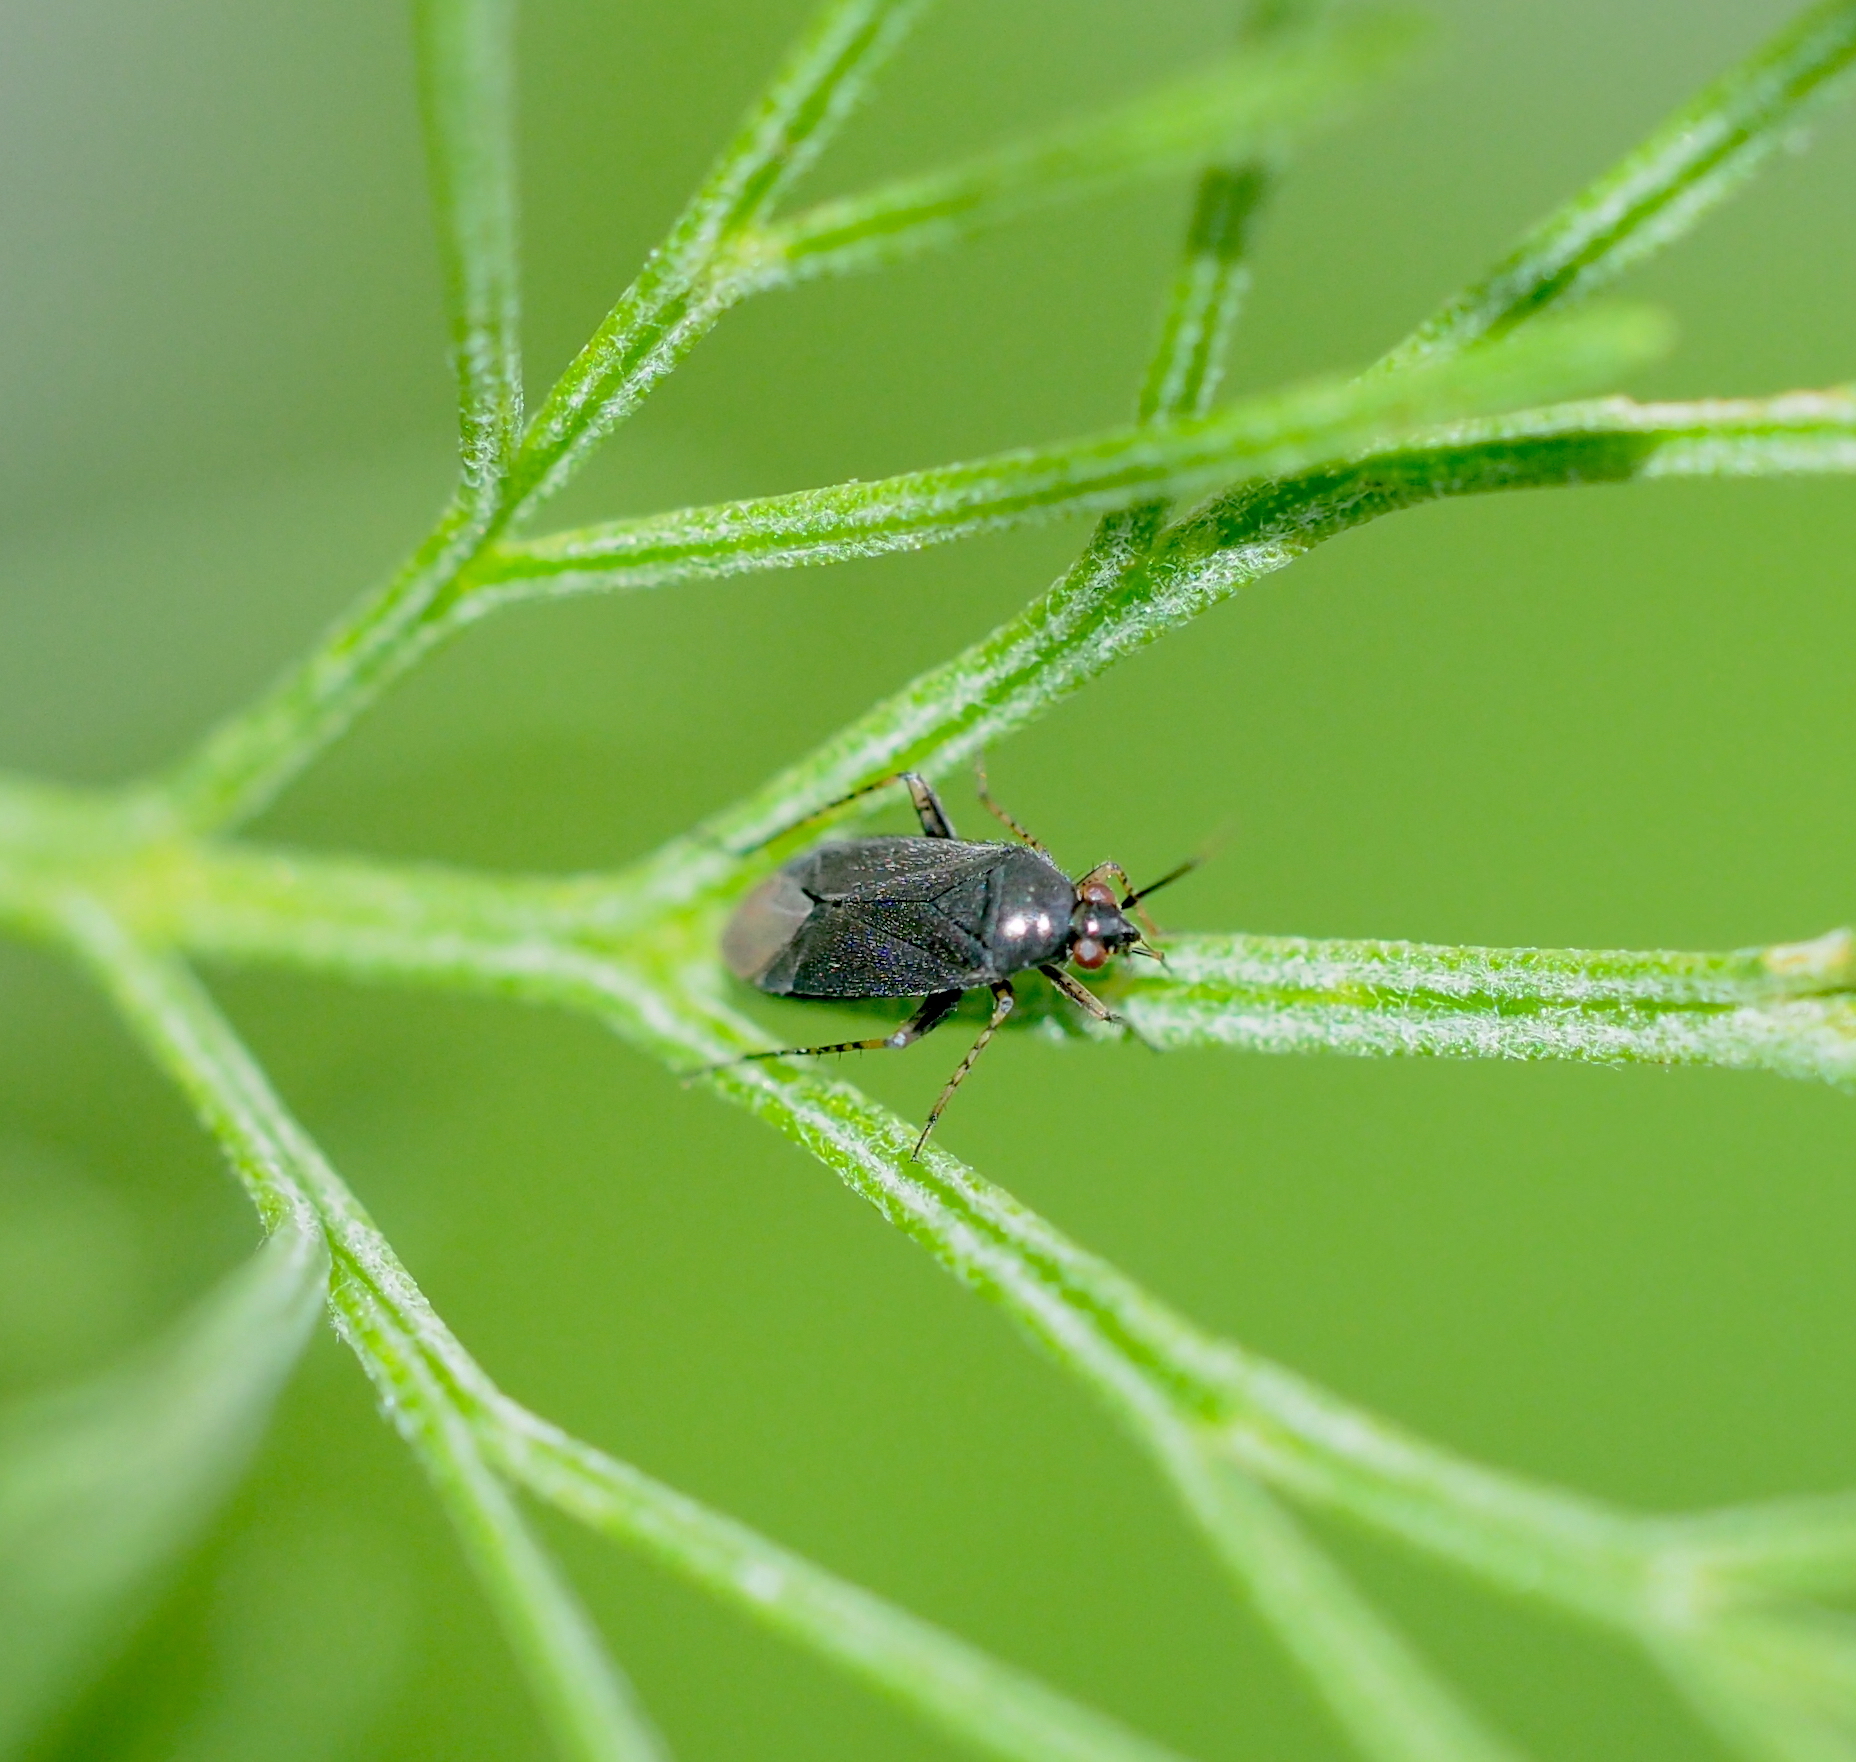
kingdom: Animalia
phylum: Arthropoda
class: Insecta
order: Hemiptera
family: Miridae
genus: Plagiognathus
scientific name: Plagiognathus arbustorum
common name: Plant bug
